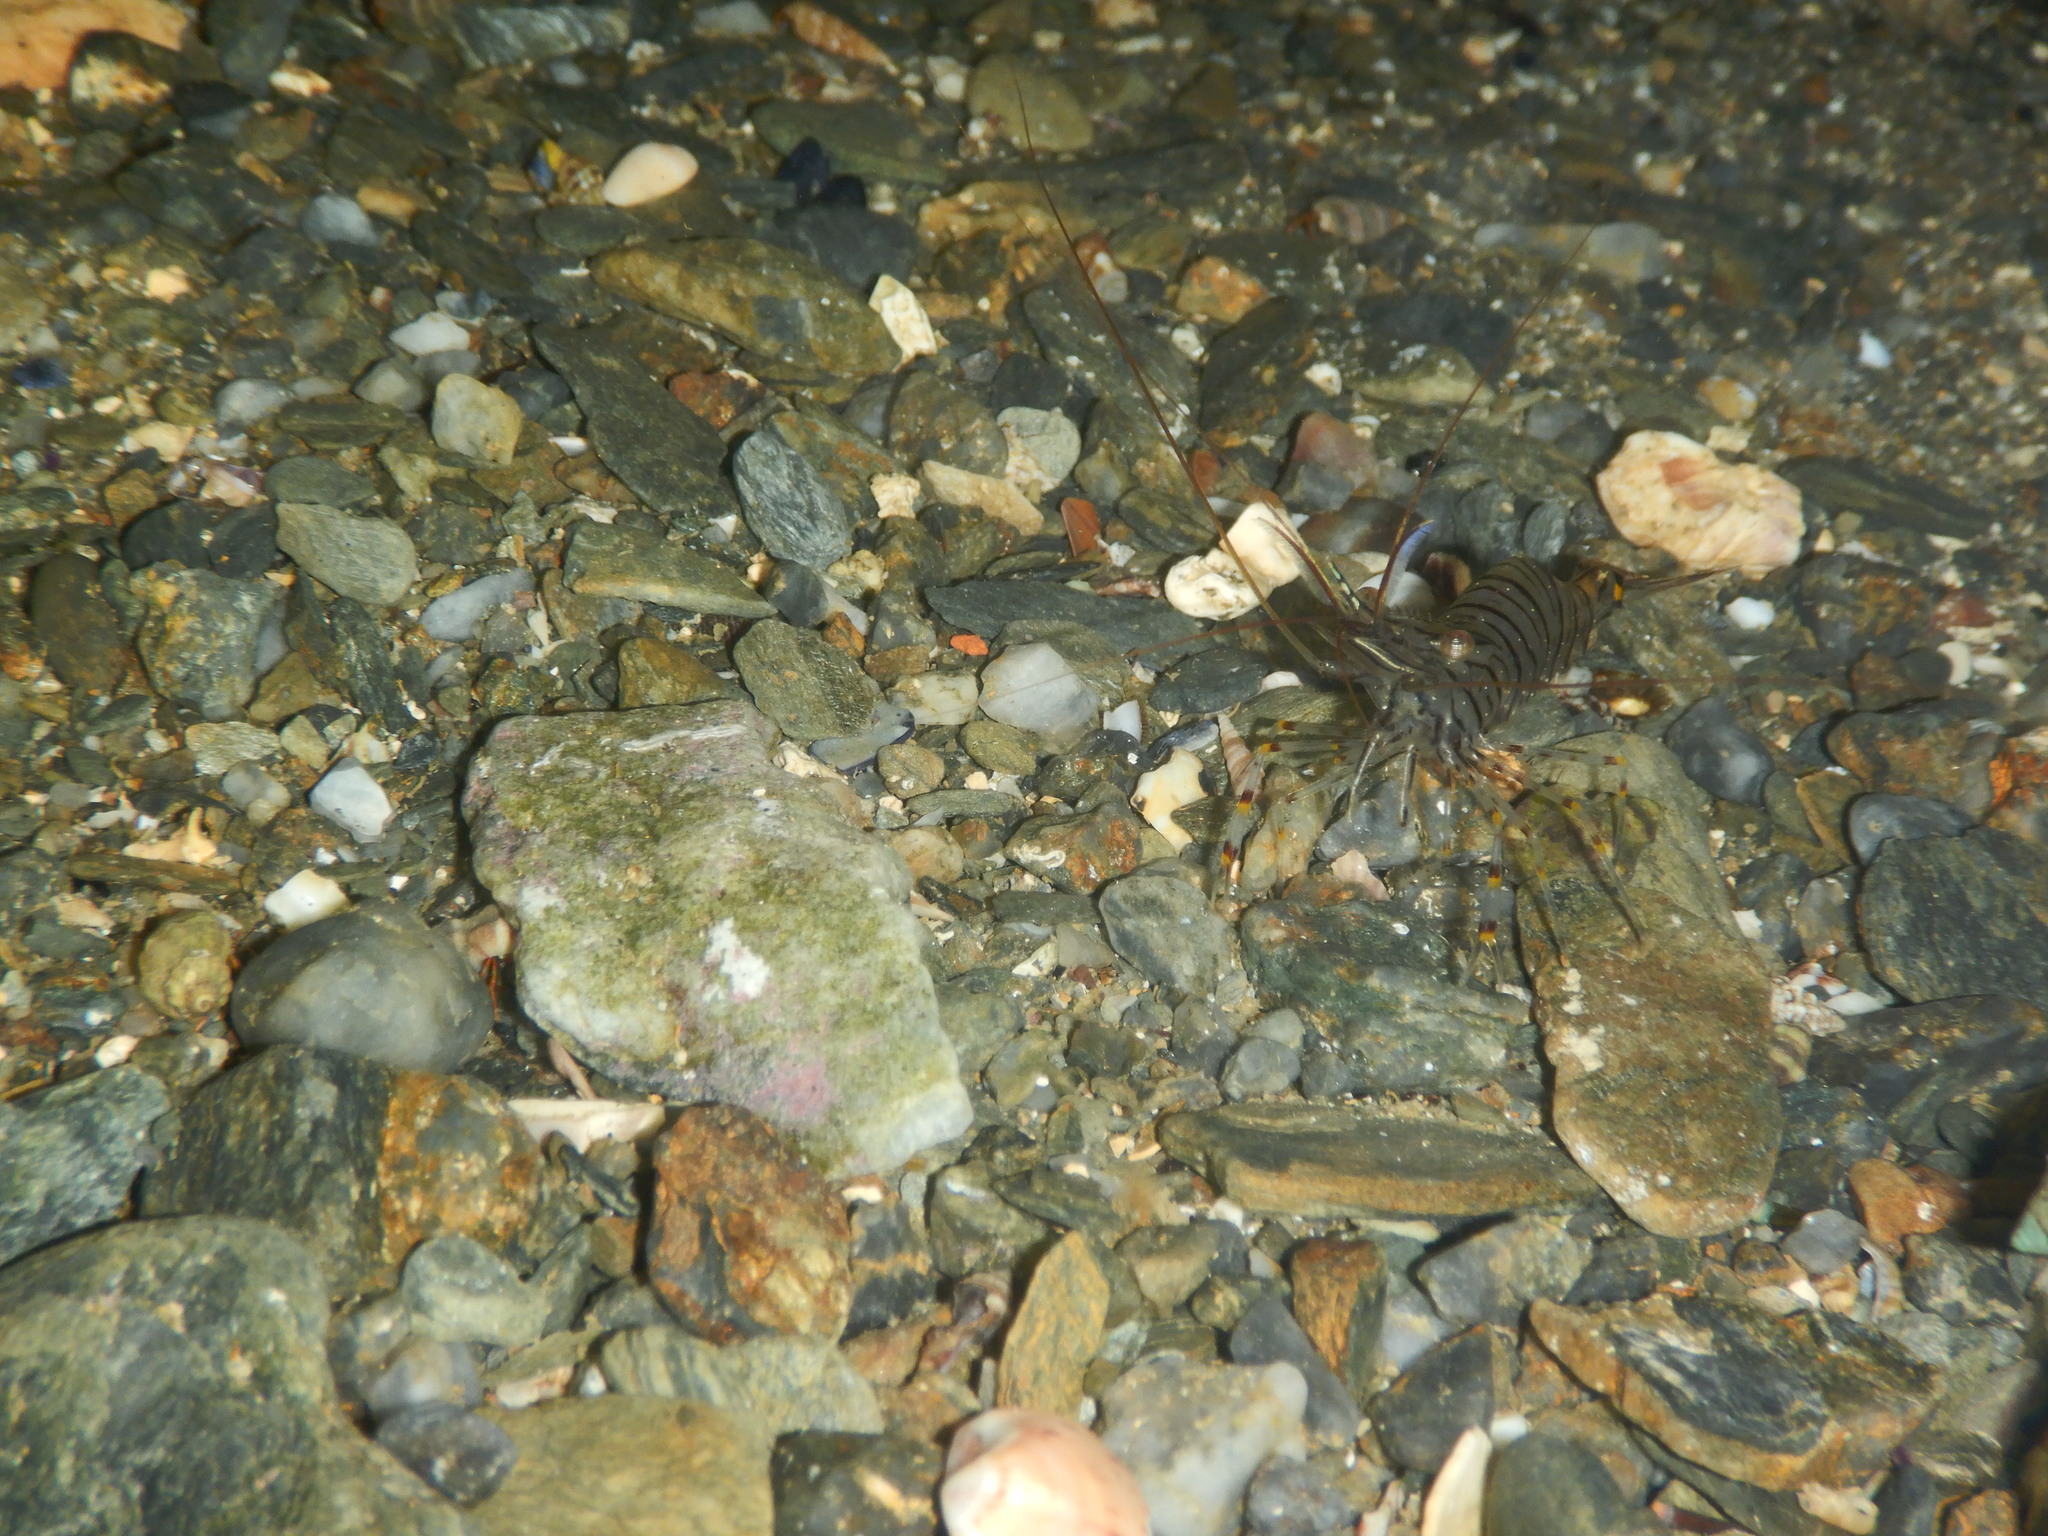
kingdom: Animalia
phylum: Arthropoda
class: Malacostraca
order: Decapoda
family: Palaemonidae
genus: Palaemon
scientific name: Palaemon serratus
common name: Common prawn
